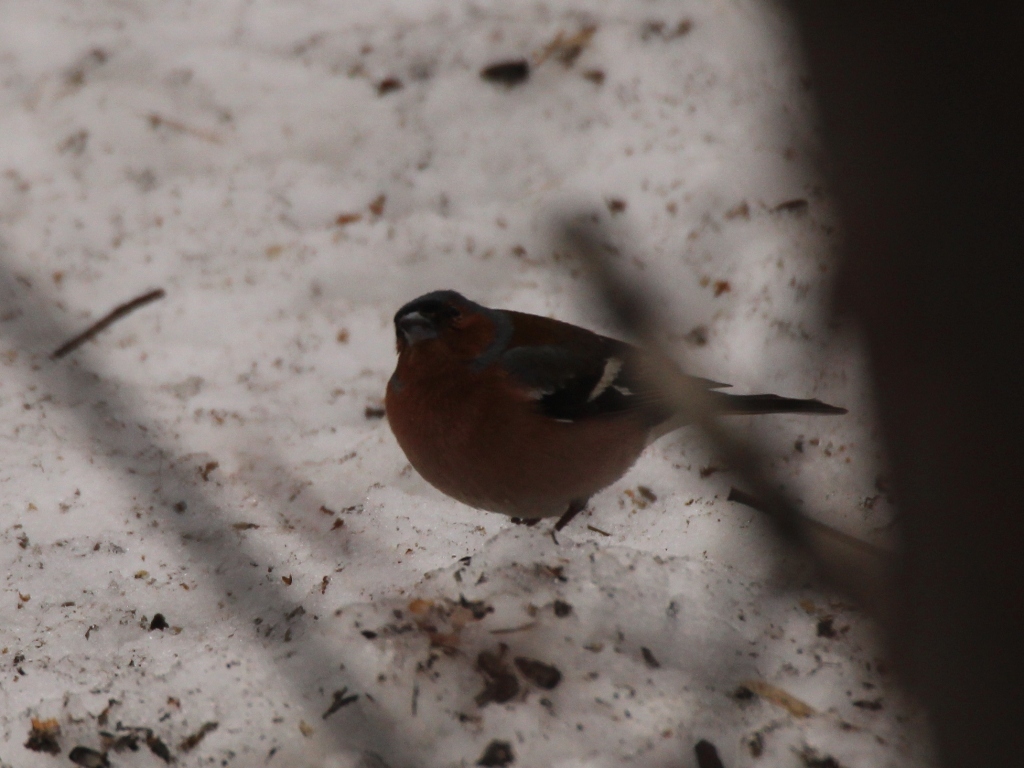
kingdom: Animalia
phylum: Chordata
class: Aves
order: Passeriformes
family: Fringillidae
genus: Fringilla
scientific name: Fringilla coelebs
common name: Common chaffinch
